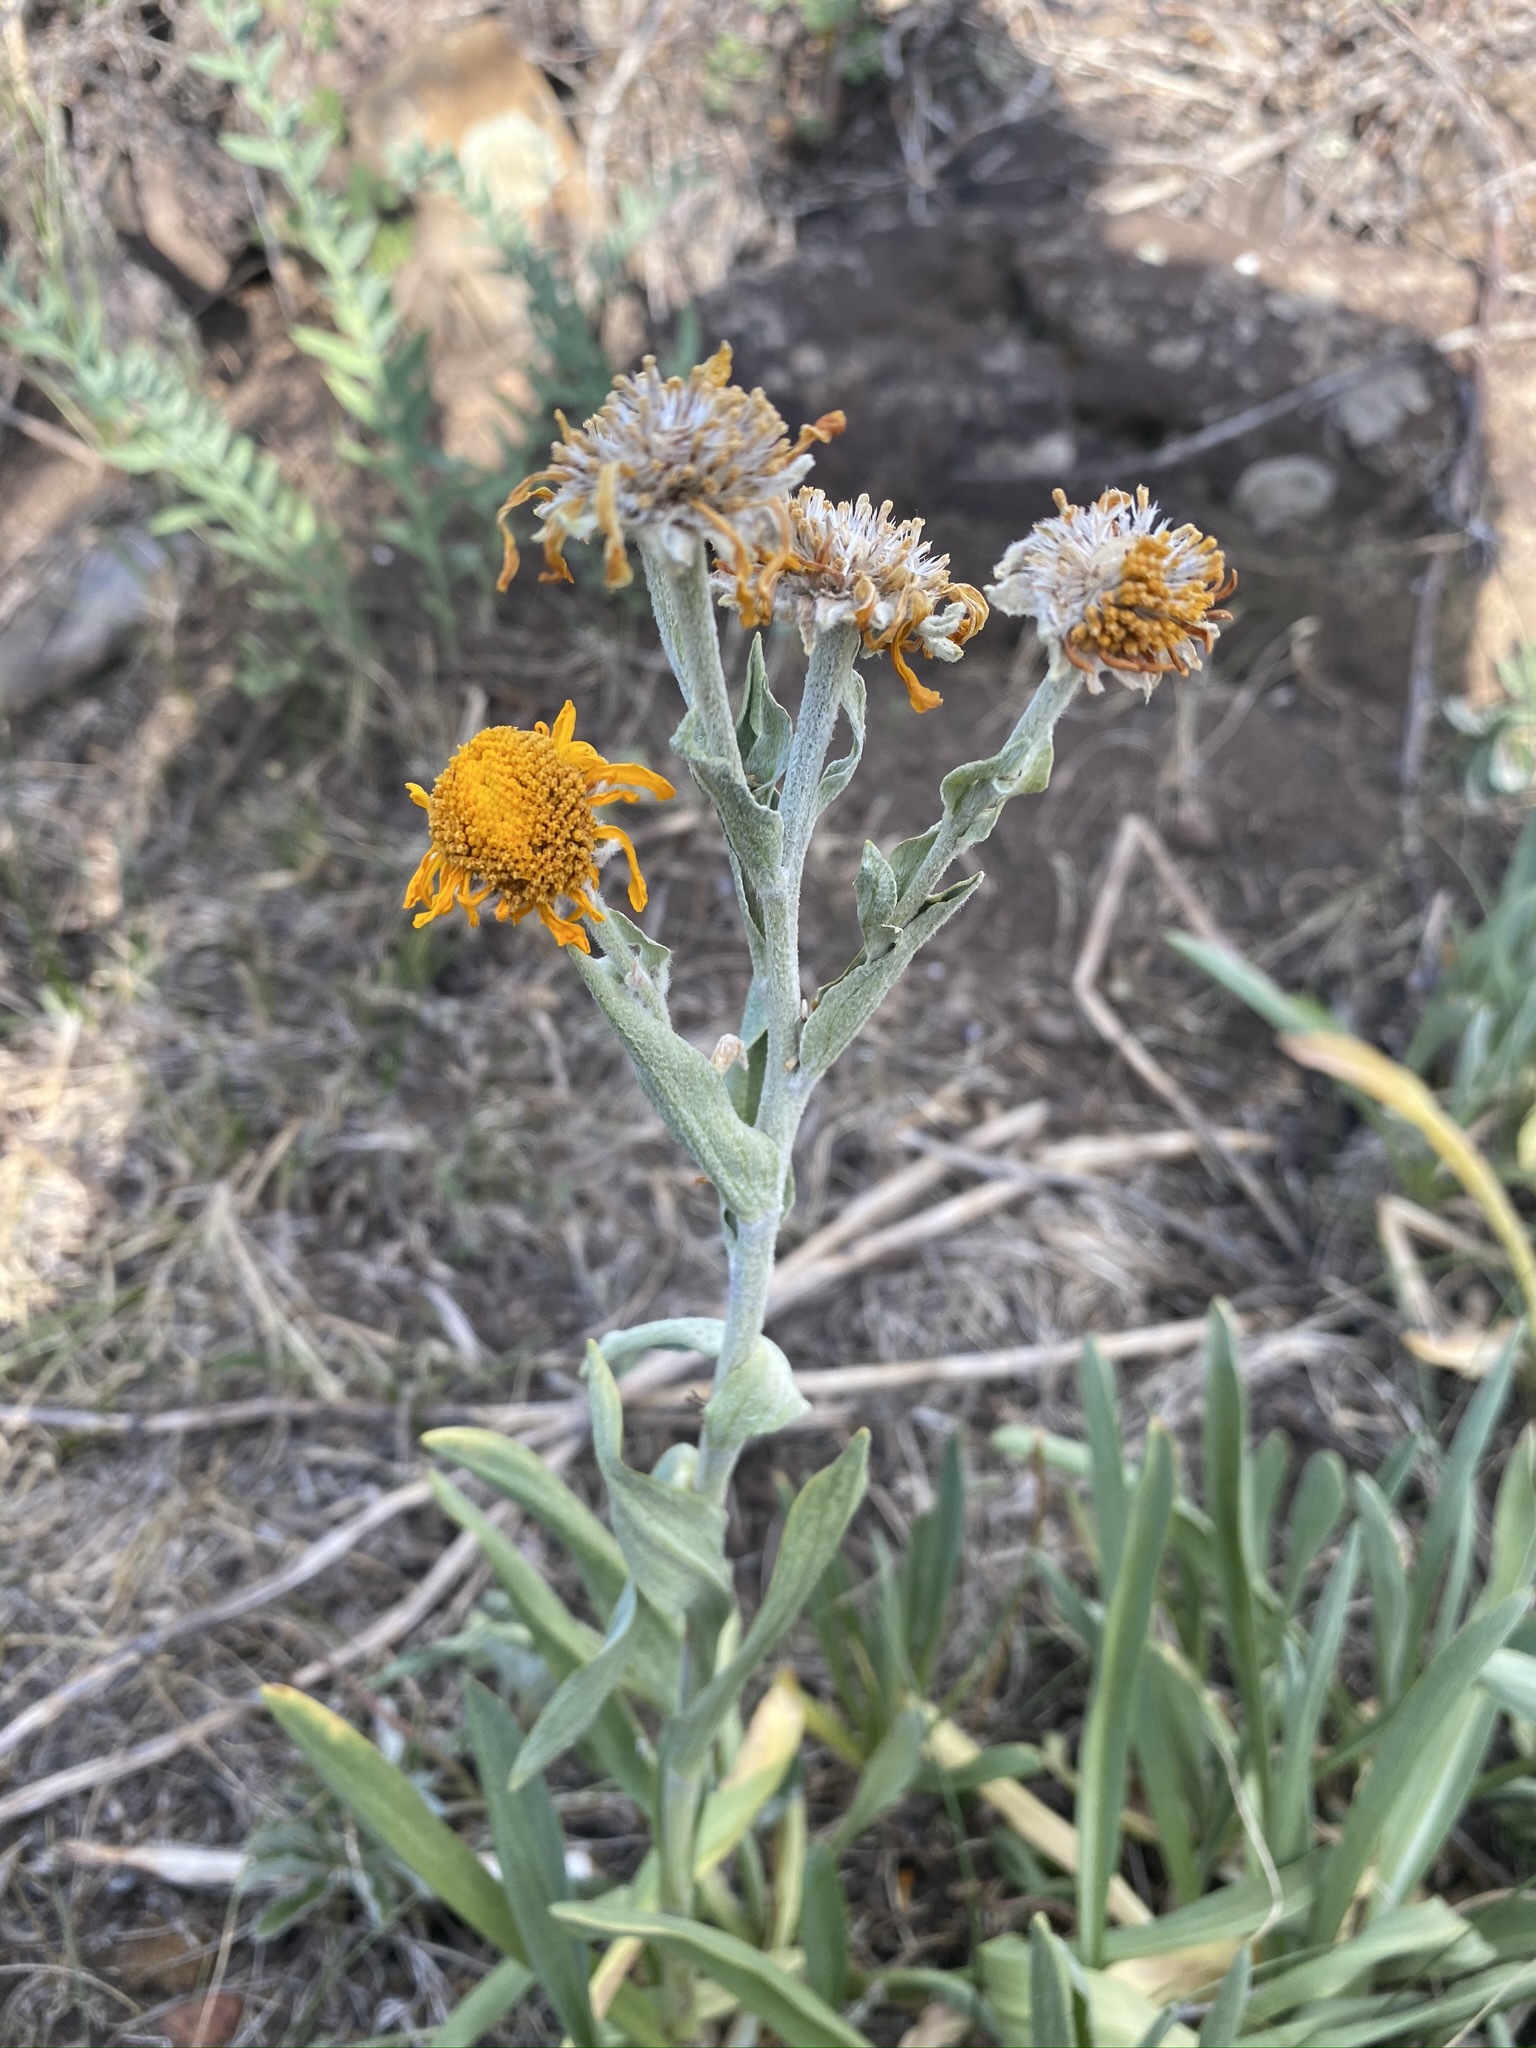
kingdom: Plantae
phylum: Tracheophyta
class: Magnoliopsida
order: Asterales
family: Asteraceae
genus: Hymenoxys
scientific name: Hymenoxys hoopesii
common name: Orange-sneezeweed
